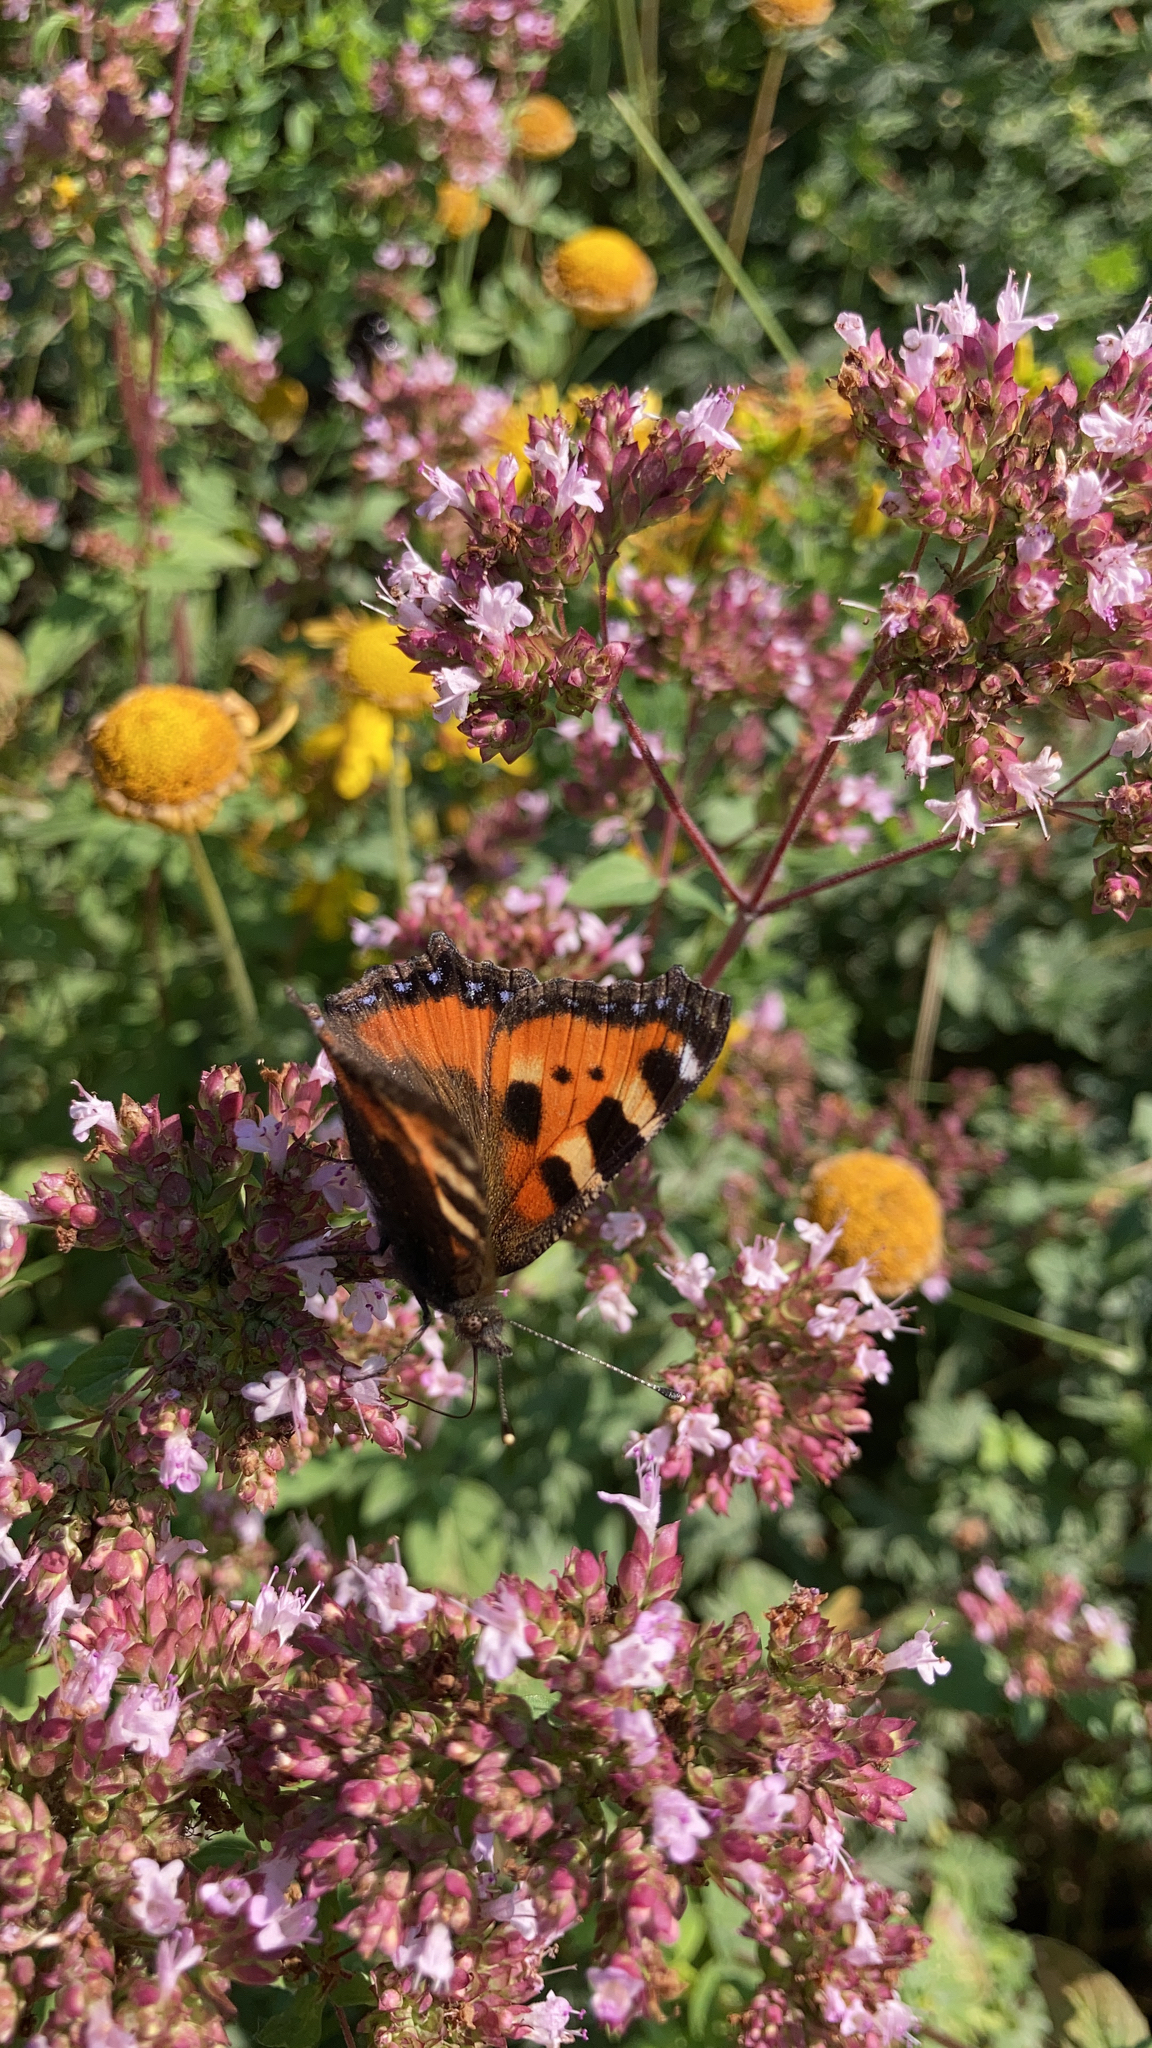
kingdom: Animalia
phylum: Arthropoda
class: Insecta
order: Lepidoptera
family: Nymphalidae
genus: Aglais
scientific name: Aglais urticae
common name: Small tortoiseshell
